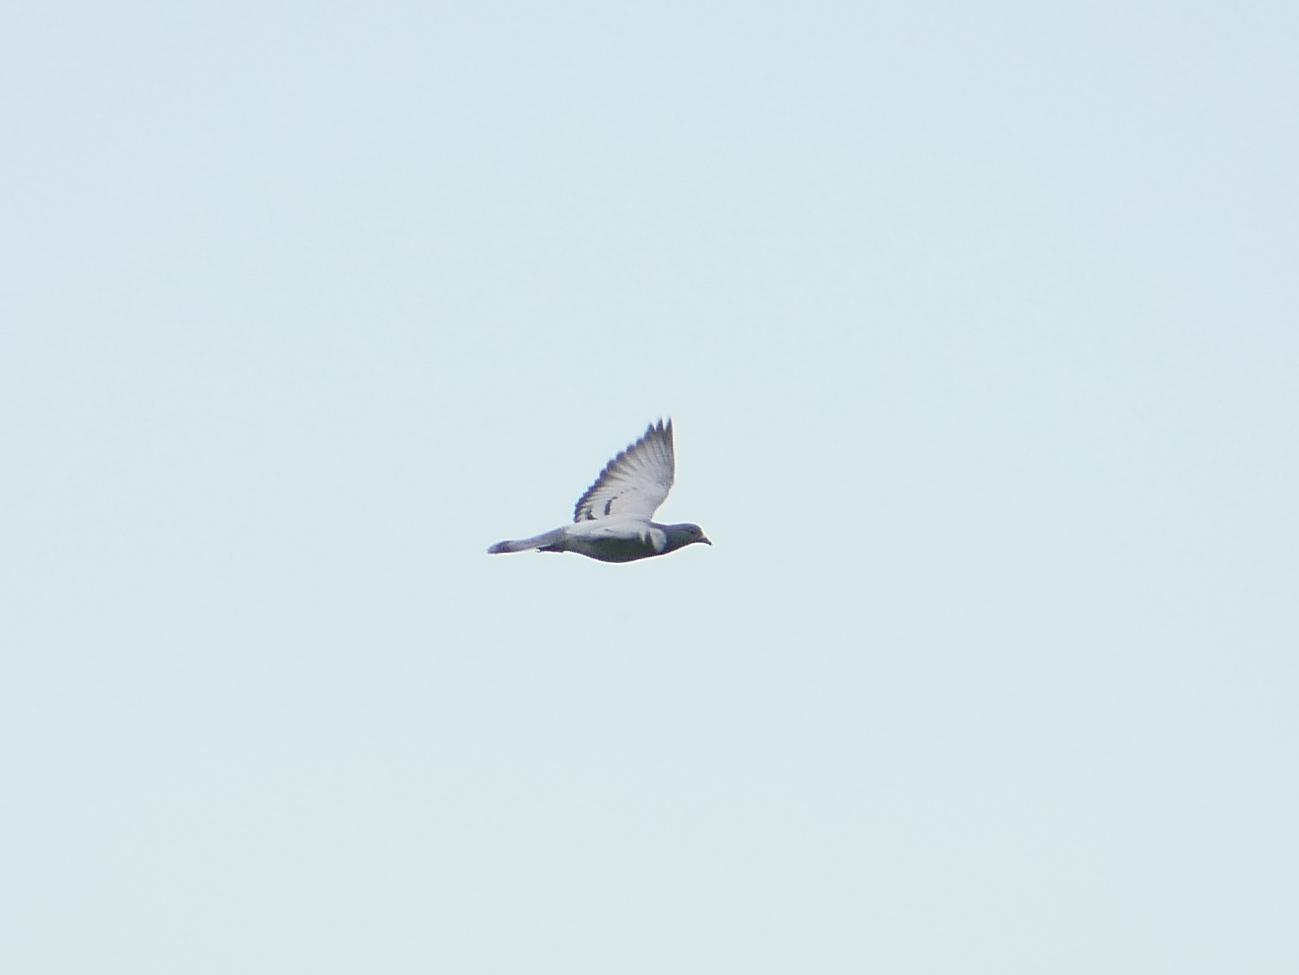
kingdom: Animalia
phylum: Chordata
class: Aves
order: Columbiformes
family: Columbidae
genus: Columba
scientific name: Columba livia
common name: Rock pigeon
